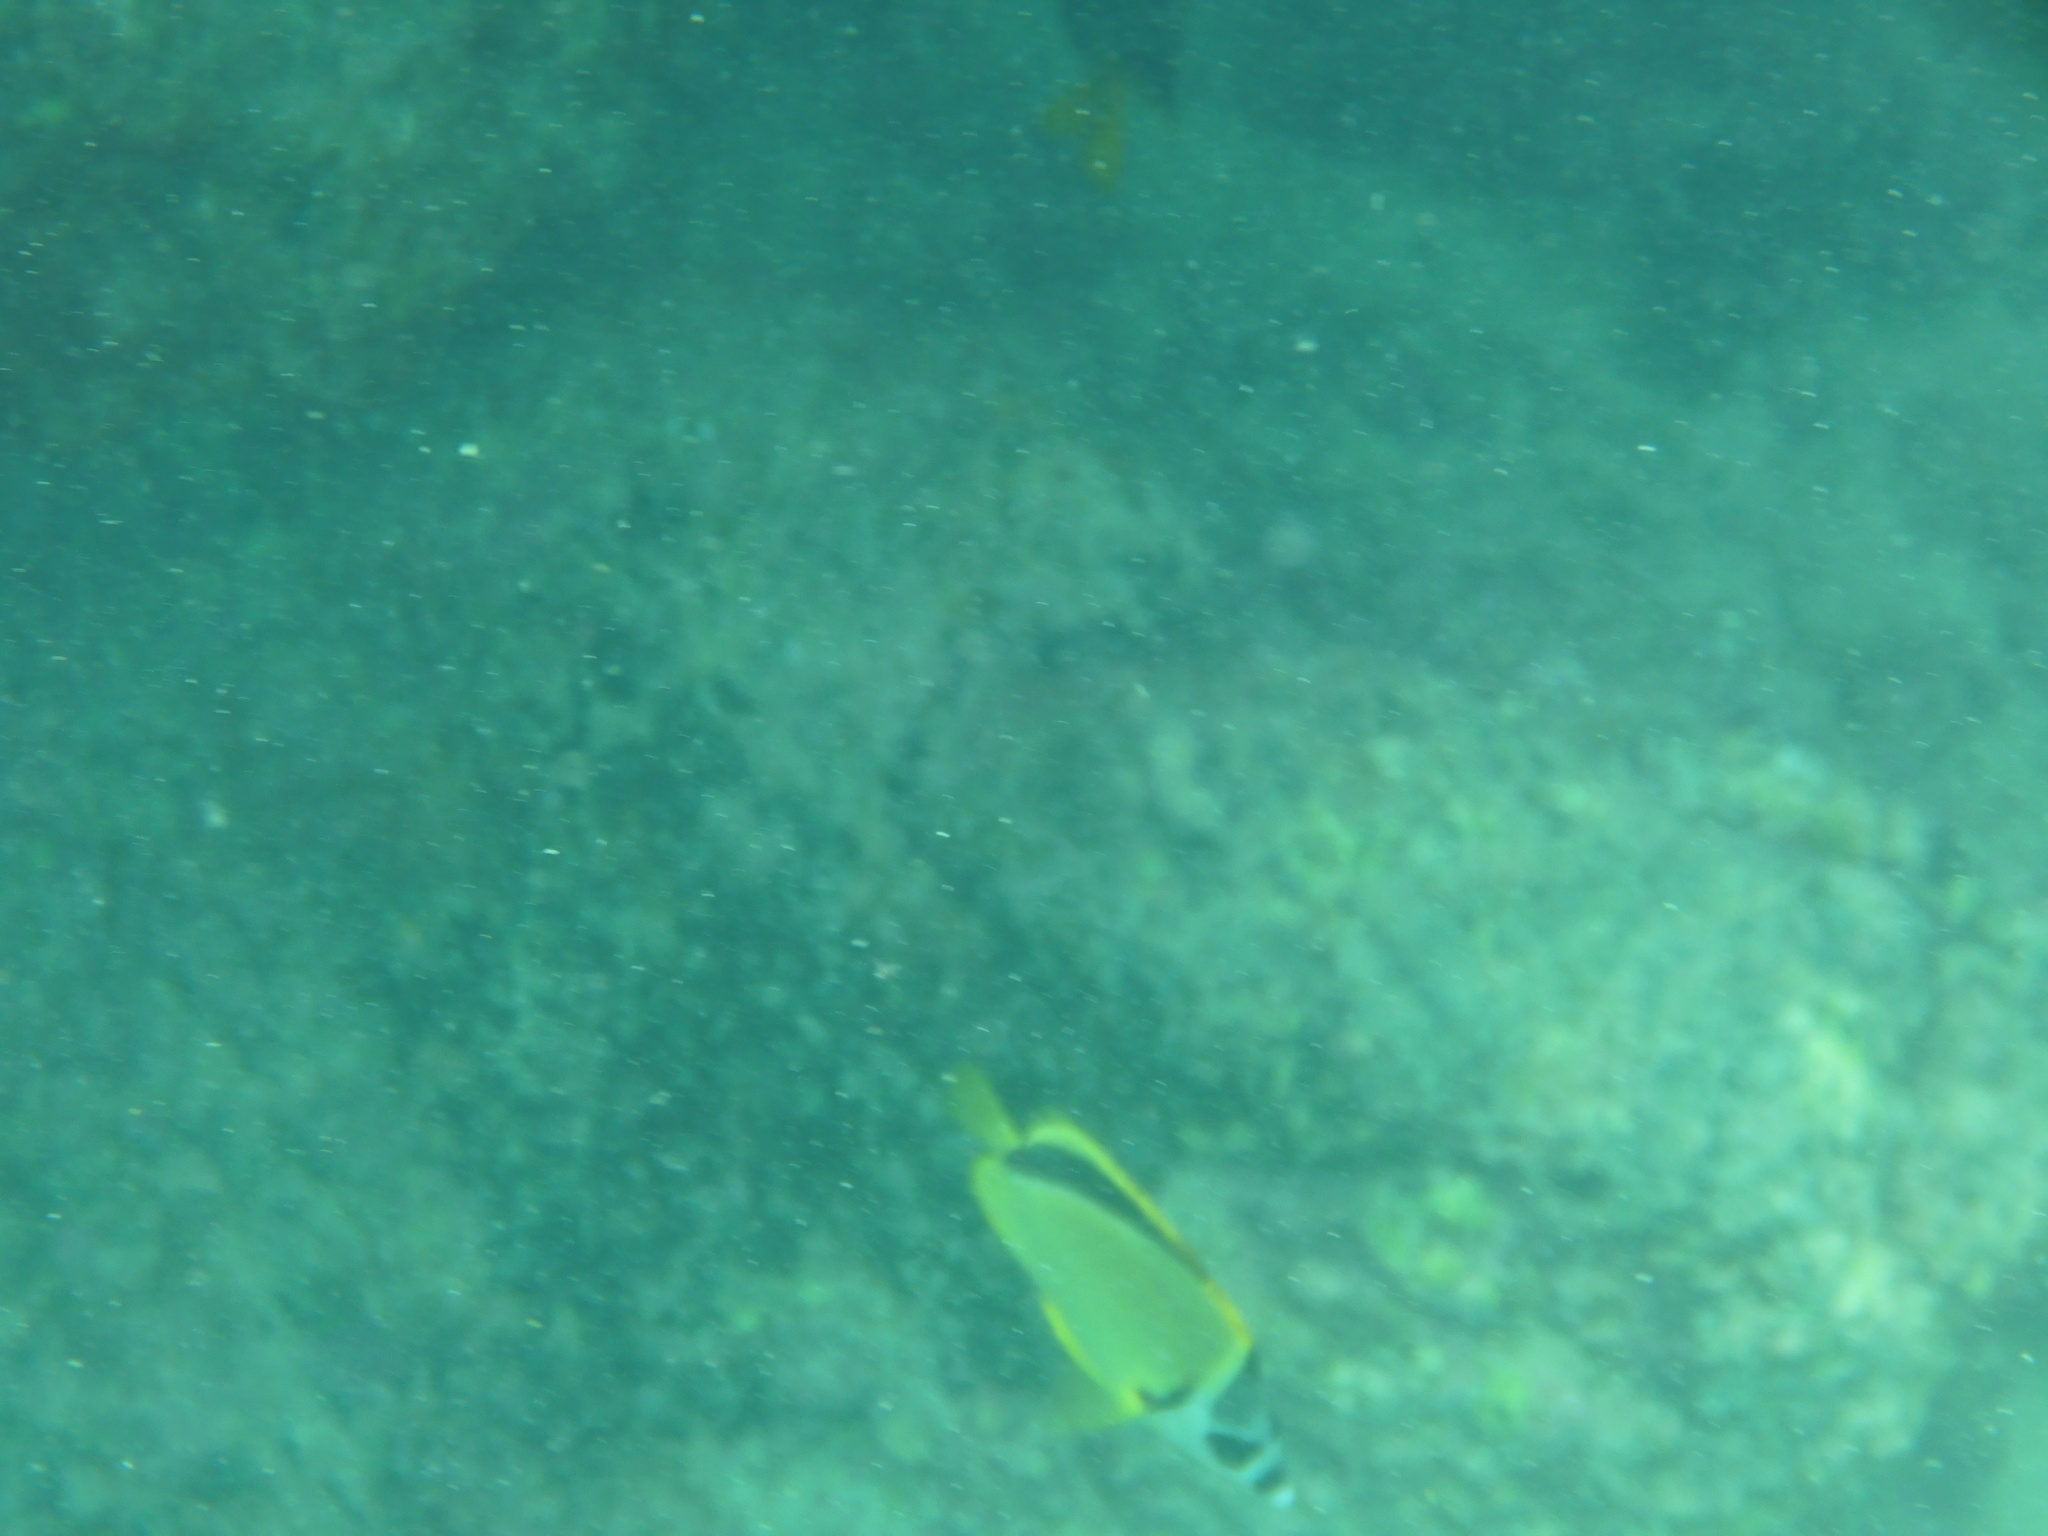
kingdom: Animalia
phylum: Chordata
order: Perciformes
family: Chaetodontidae
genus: Johnrandallia
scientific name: Johnrandallia nigrirostris
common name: Barberfish
